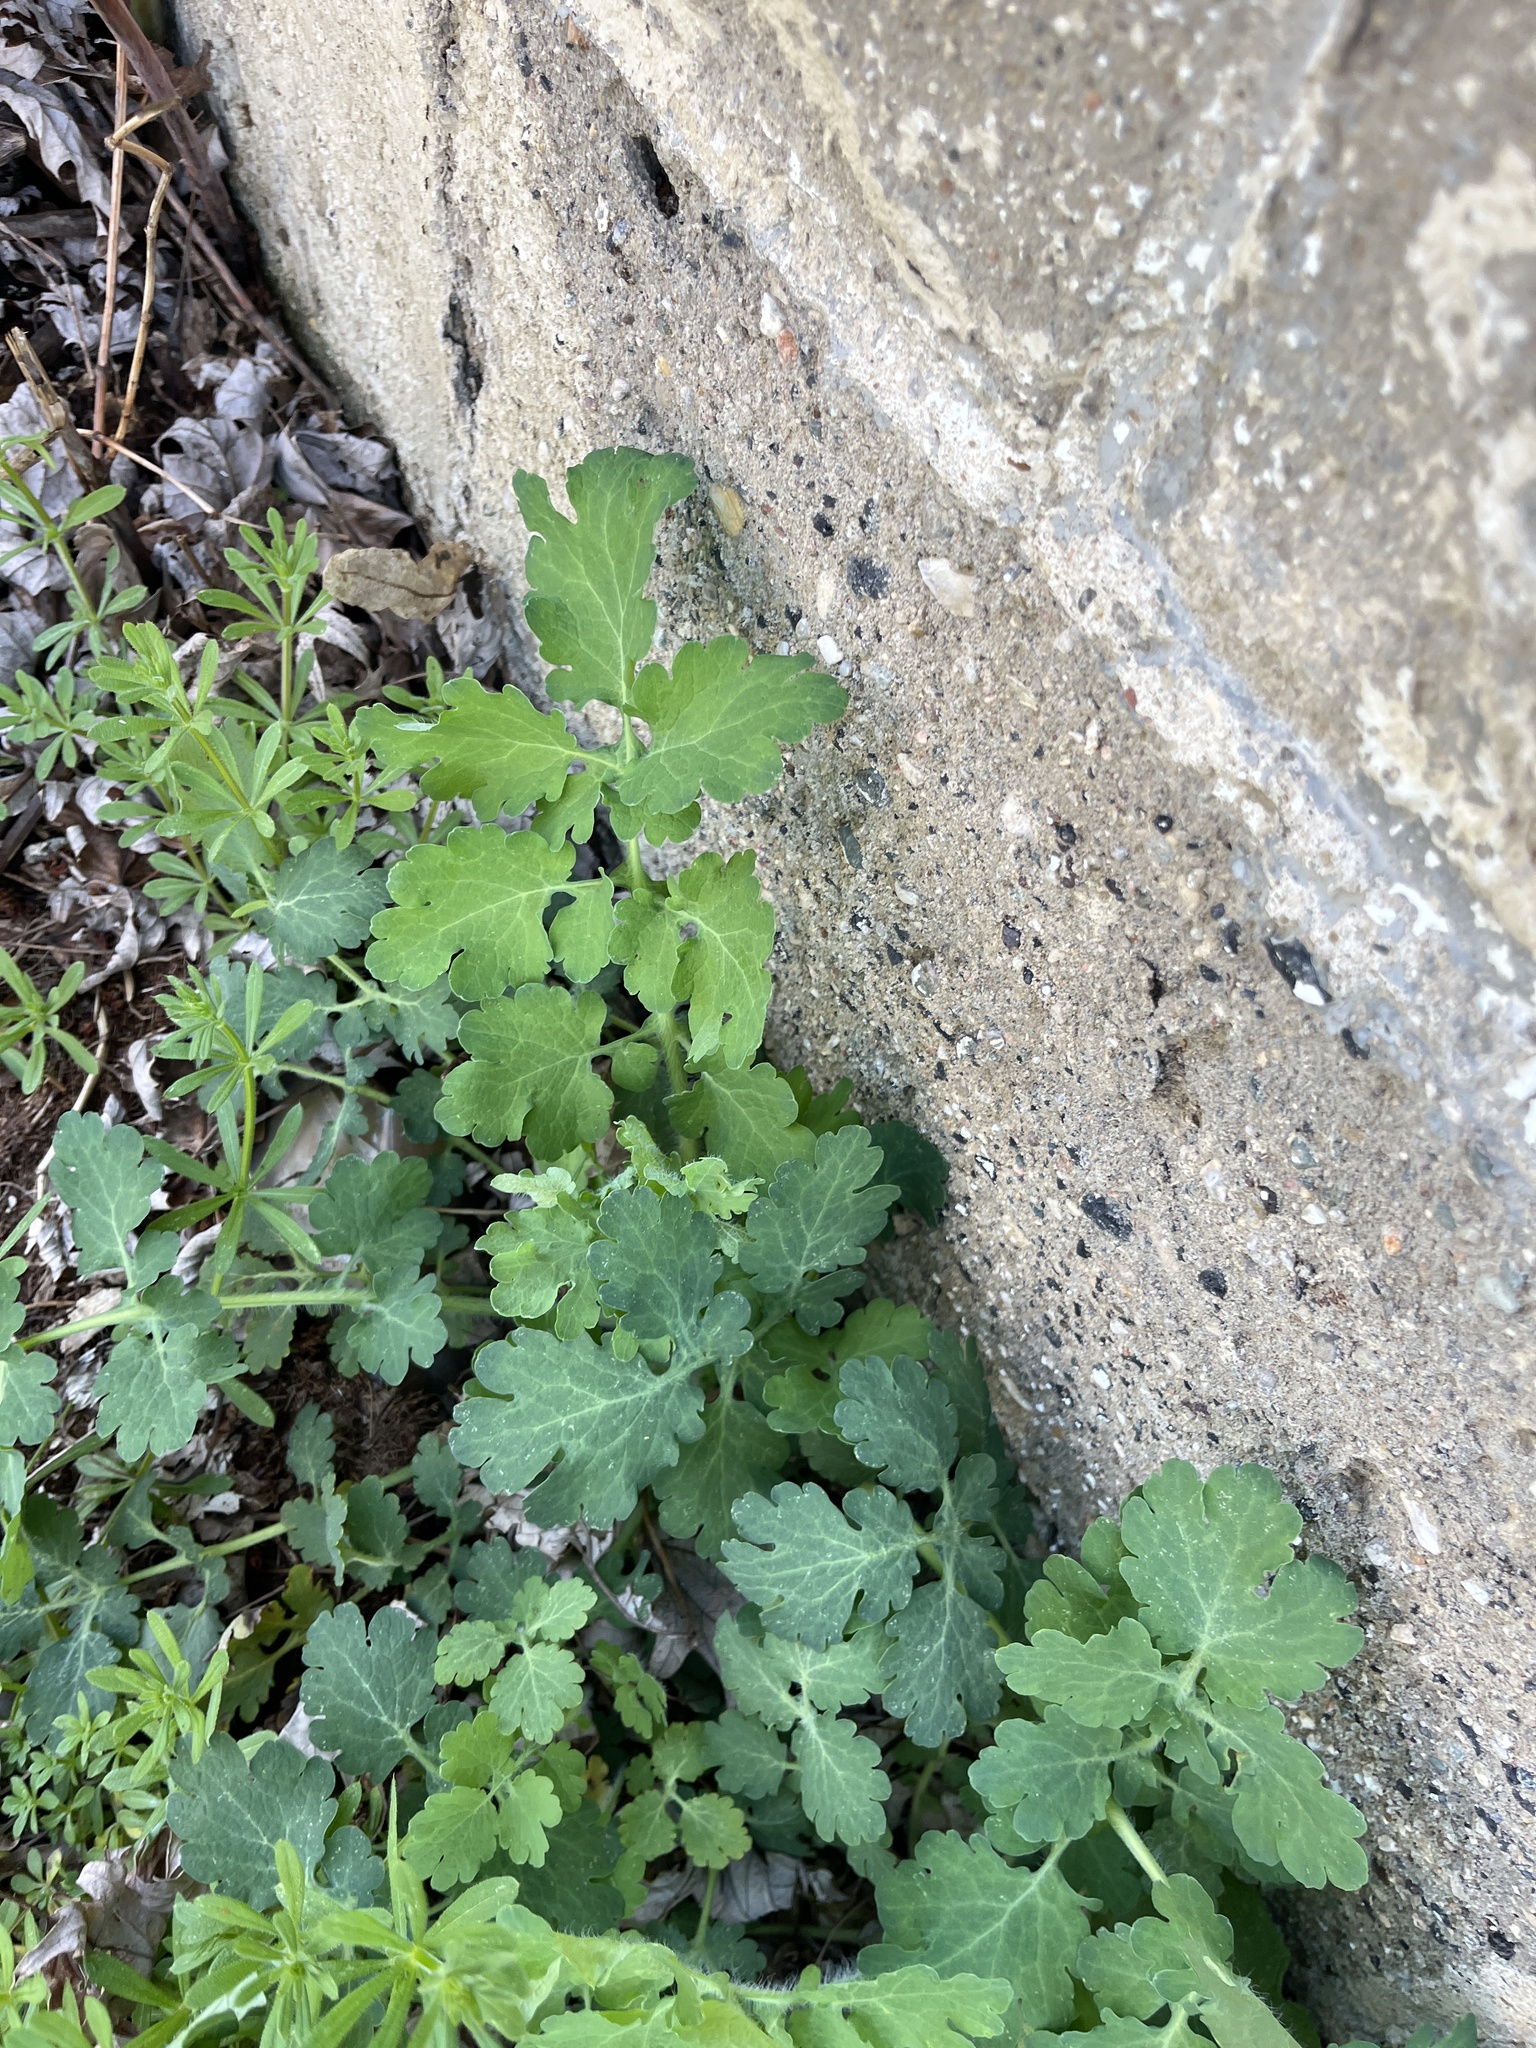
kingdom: Plantae
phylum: Tracheophyta
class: Magnoliopsida
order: Ranunculales
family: Papaveraceae
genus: Chelidonium
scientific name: Chelidonium majus
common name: Greater celandine
